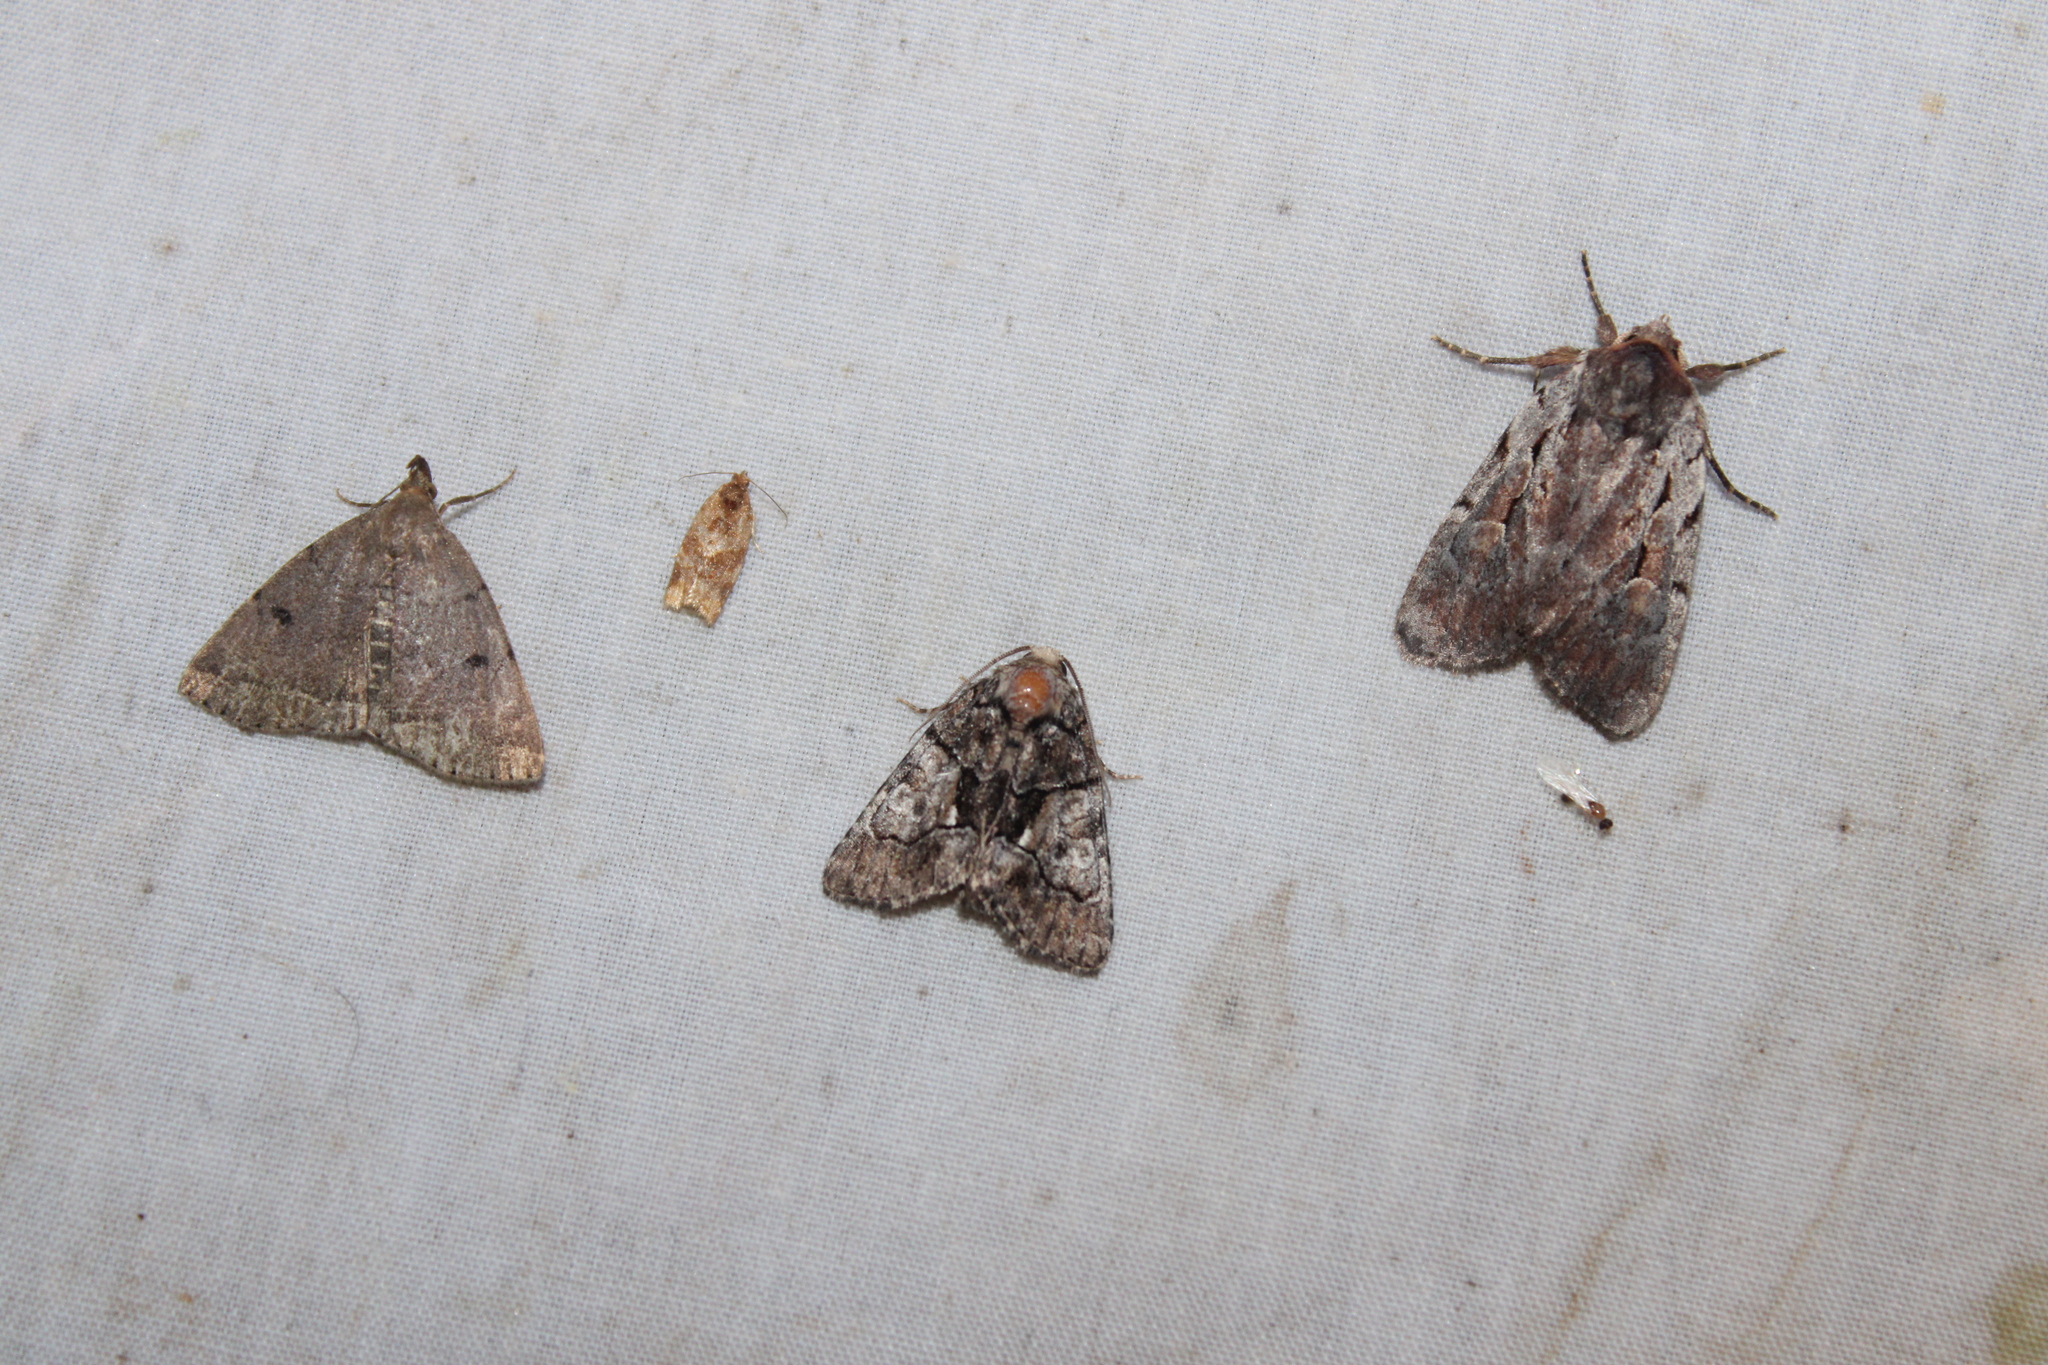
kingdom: Animalia
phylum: Arthropoda
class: Insecta
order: Lepidoptera
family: Noctuidae
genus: Chytonix
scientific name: Chytonix palliatricula
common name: Cloaked marvel
